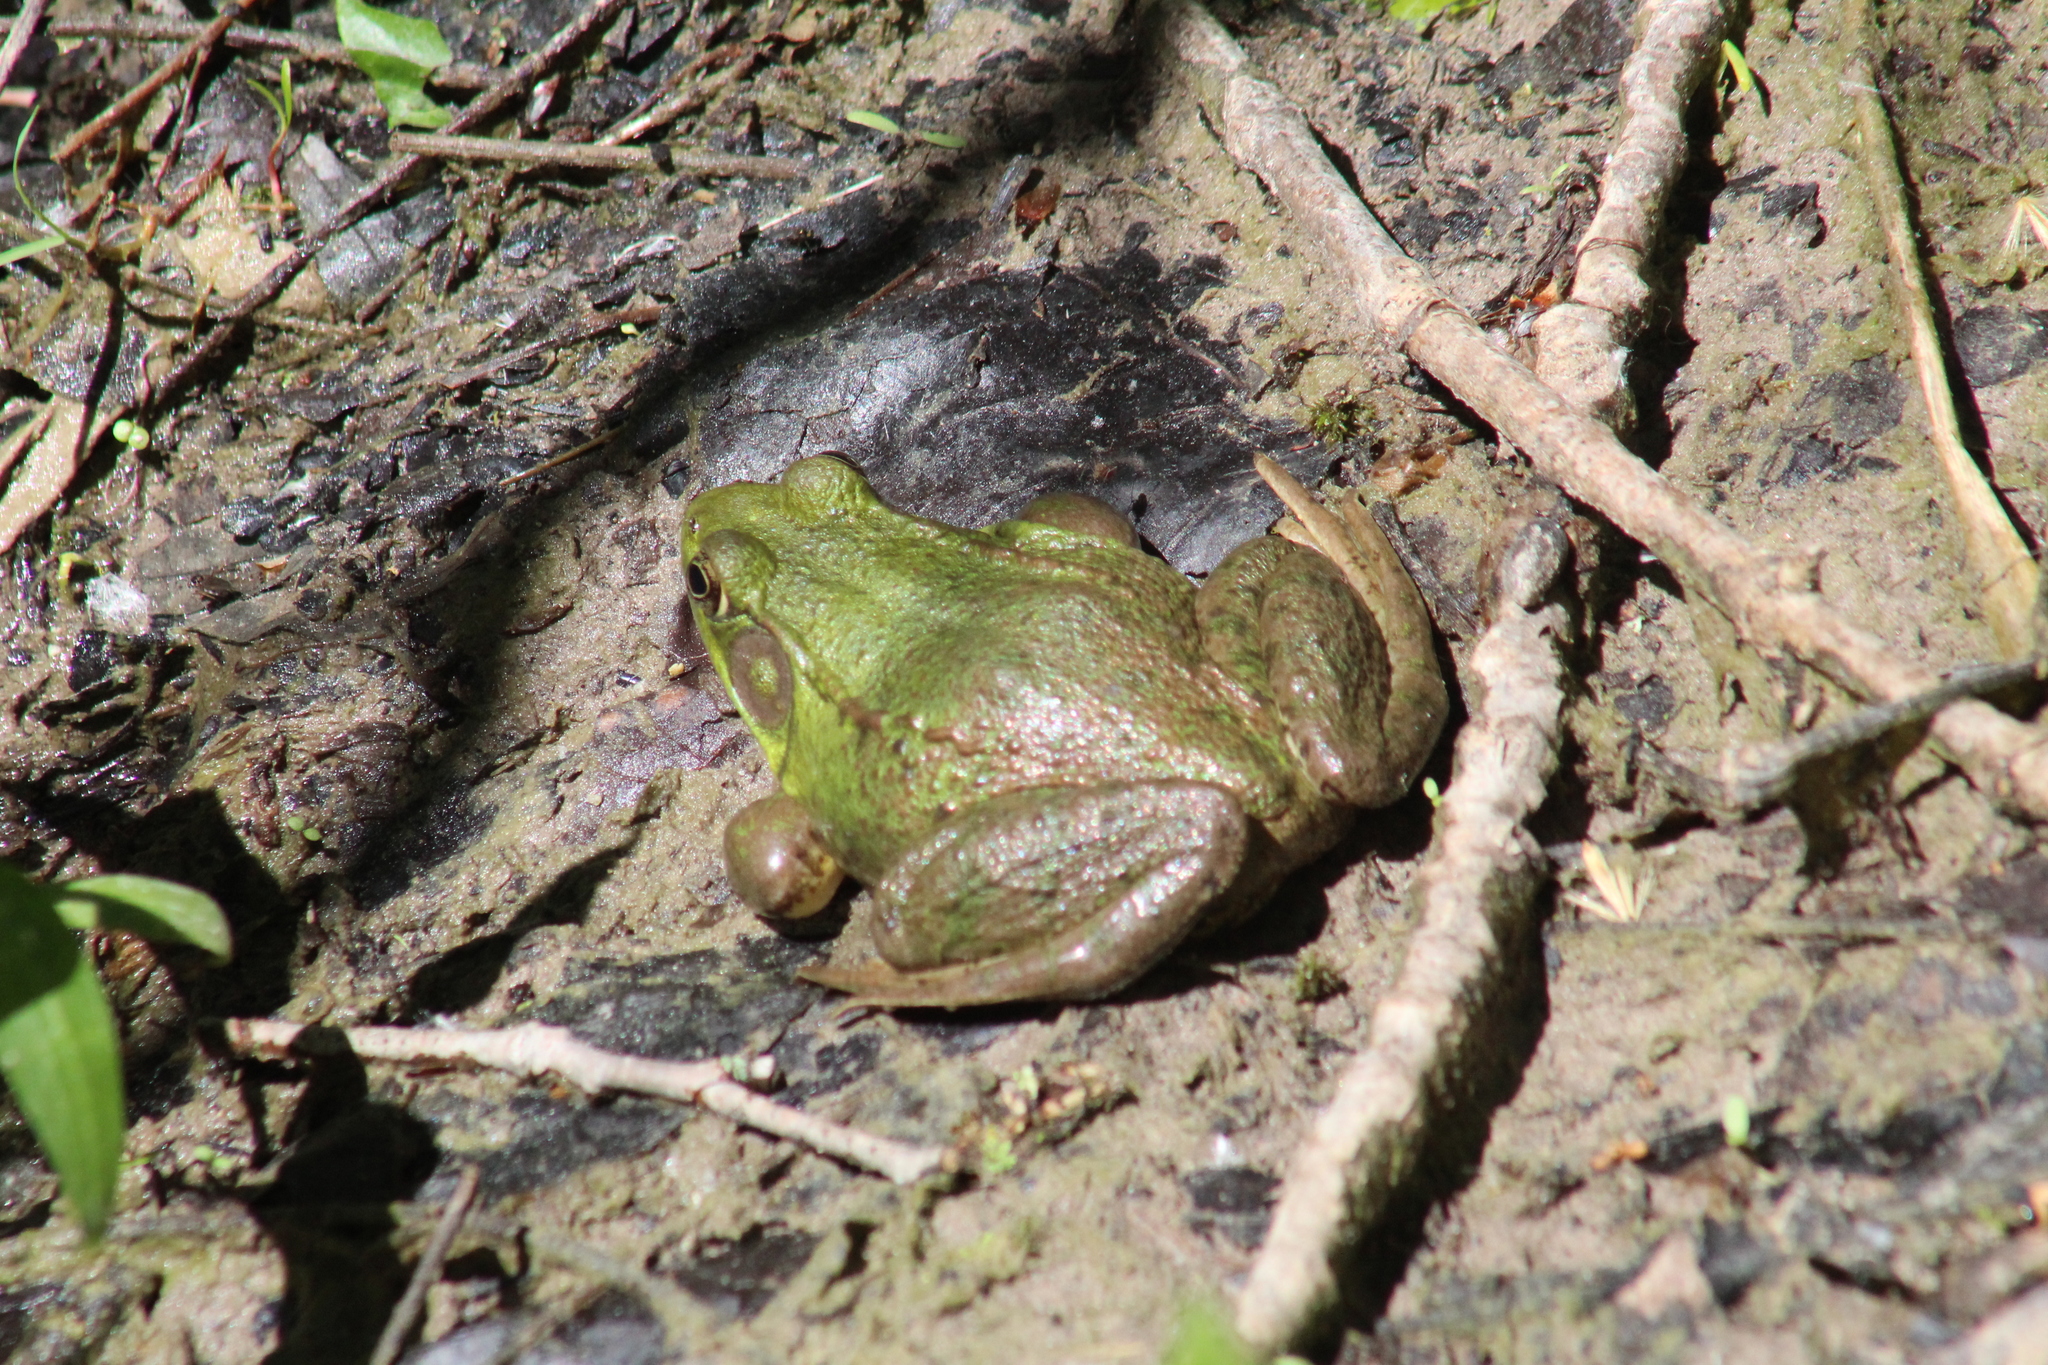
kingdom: Animalia
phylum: Chordata
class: Amphibia
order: Anura
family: Ranidae
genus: Lithobates
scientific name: Lithobates clamitans
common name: Green frog
